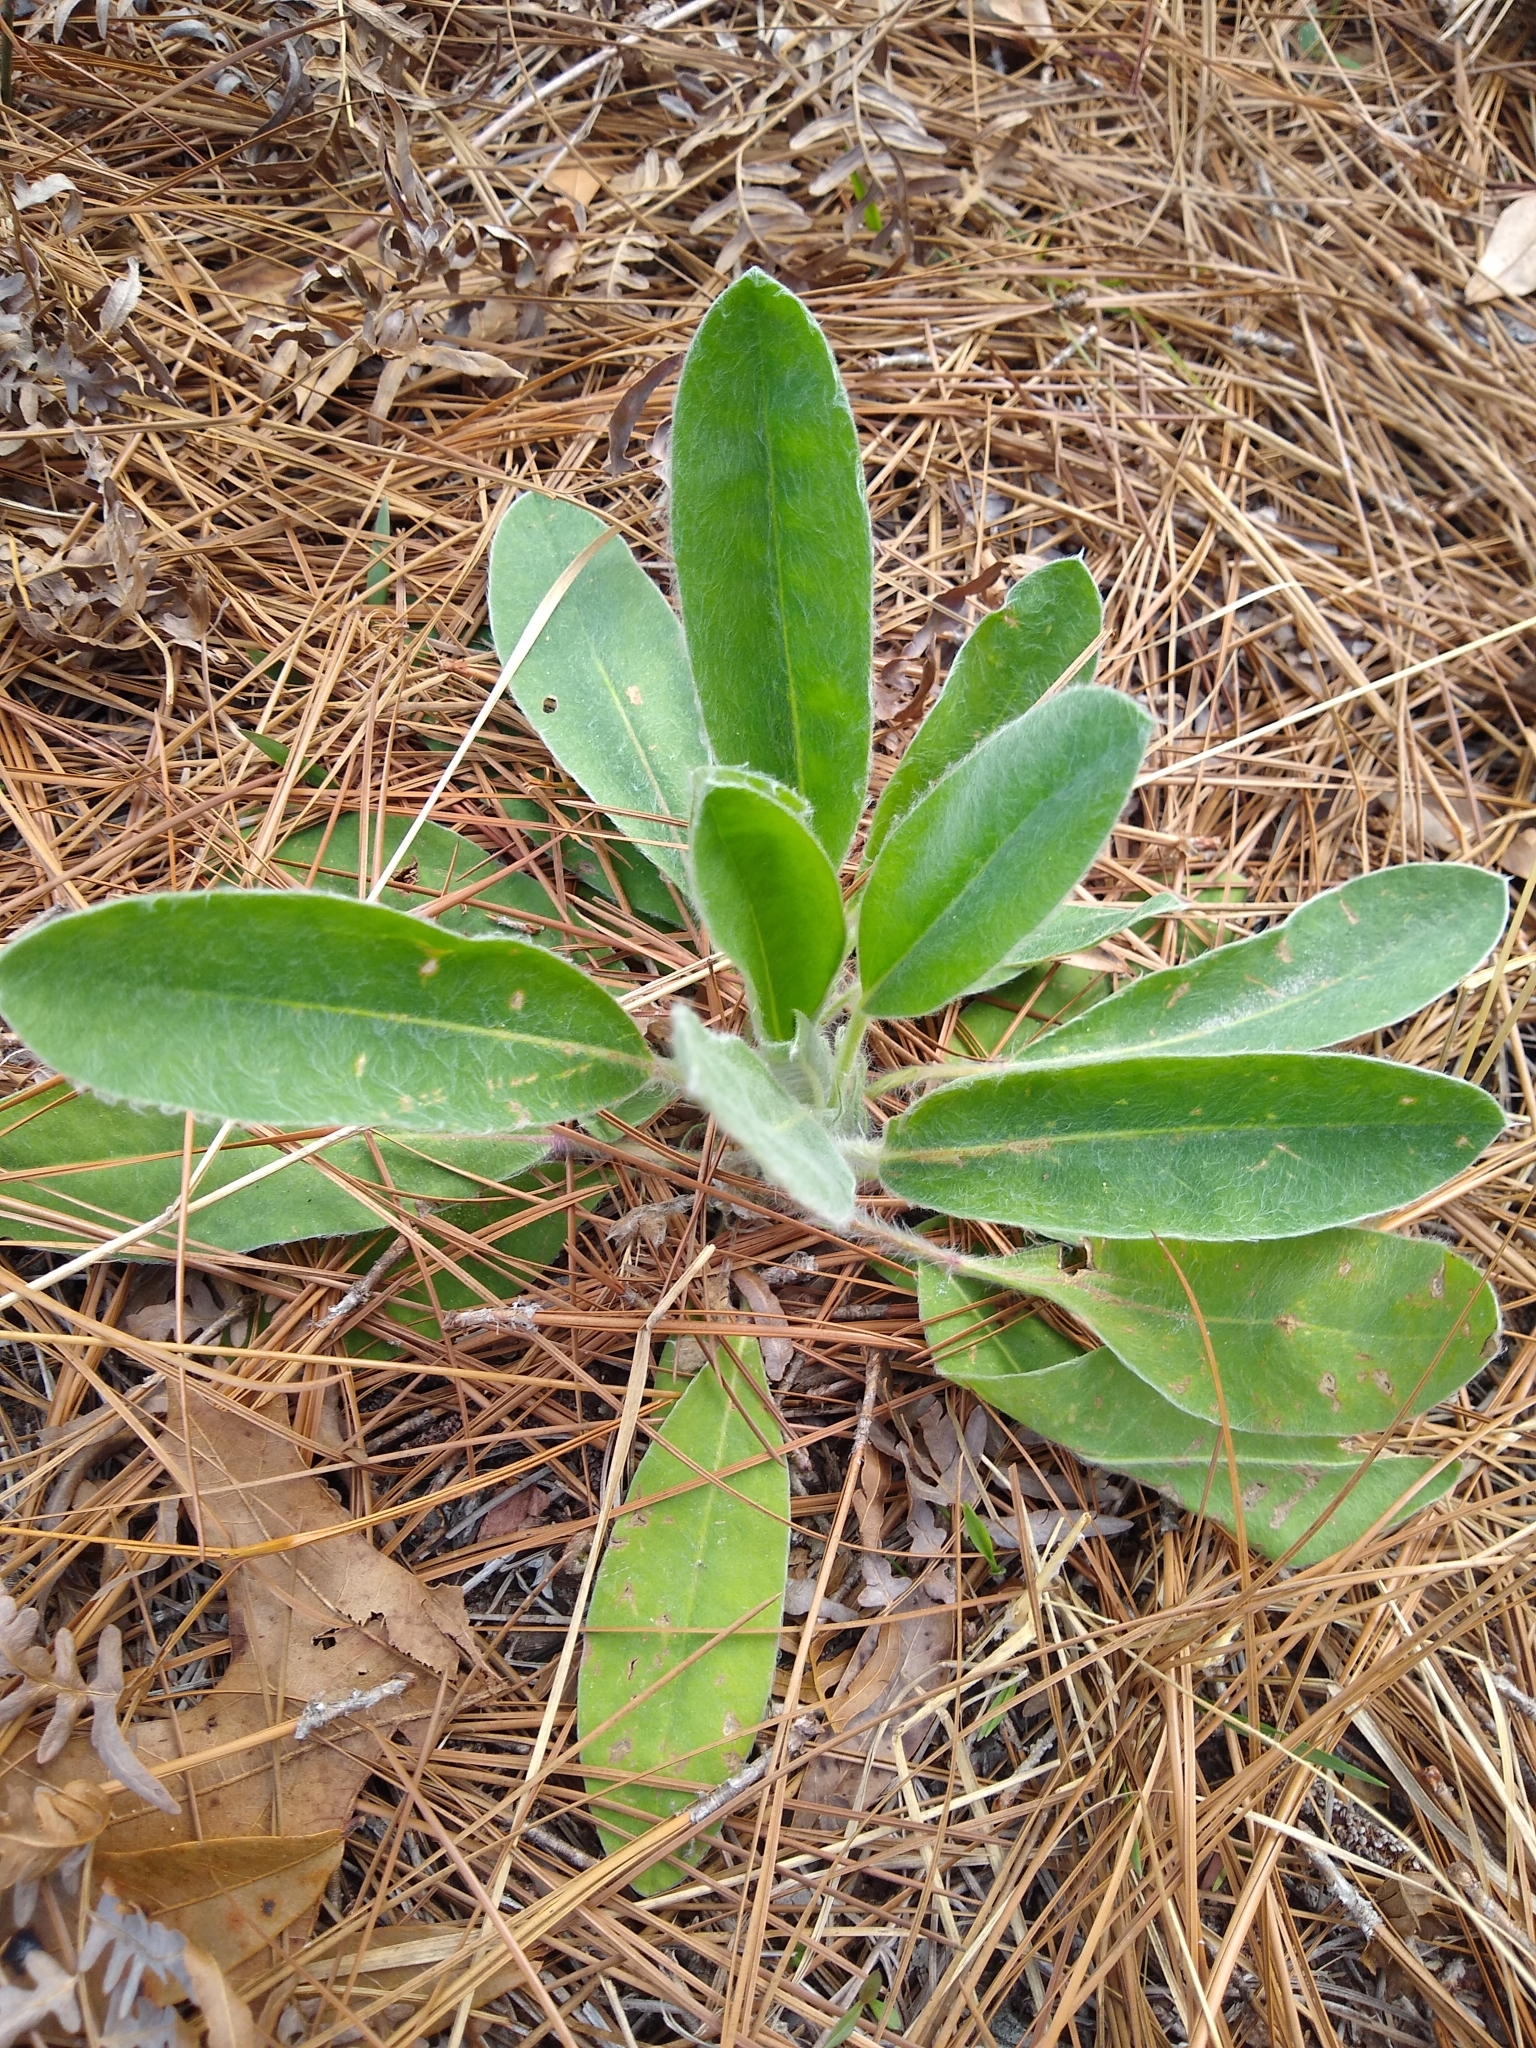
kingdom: Plantae
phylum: Tracheophyta
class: Magnoliopsida
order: Fabales
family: Fabaceae
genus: Lupinus
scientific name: Lupinus villosus
